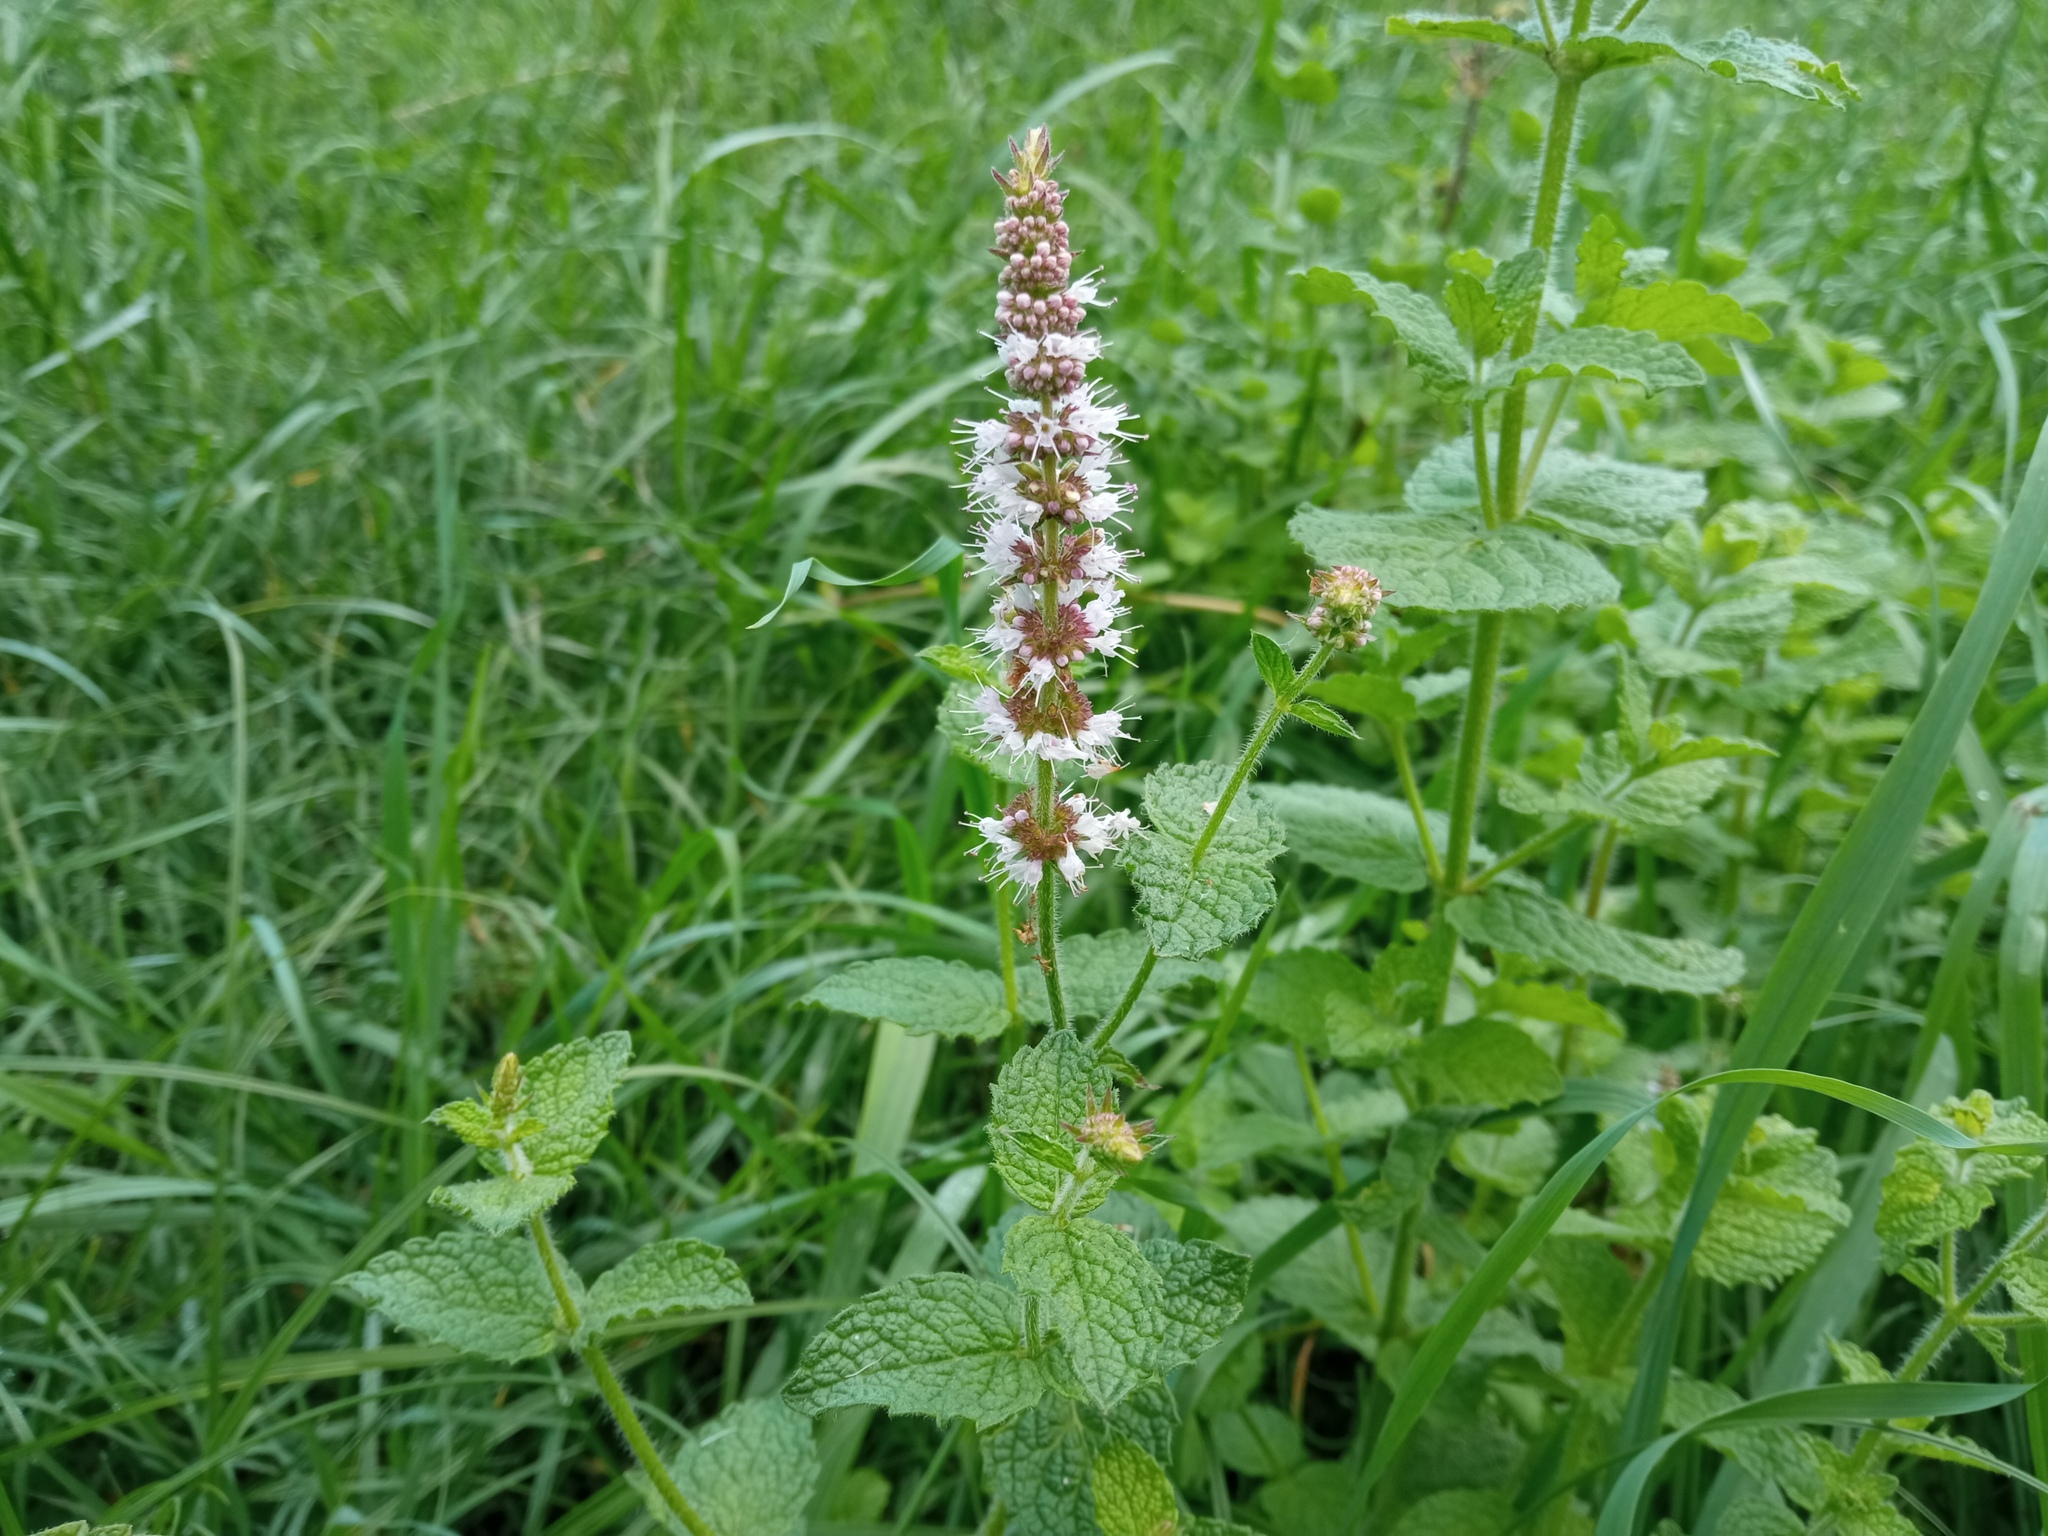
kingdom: Plantae
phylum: Tracheophyta
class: Magnoliopsida
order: Lamiales
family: Lamiaceae
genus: Mentha
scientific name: Mentha suaveolens
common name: Apple mint
